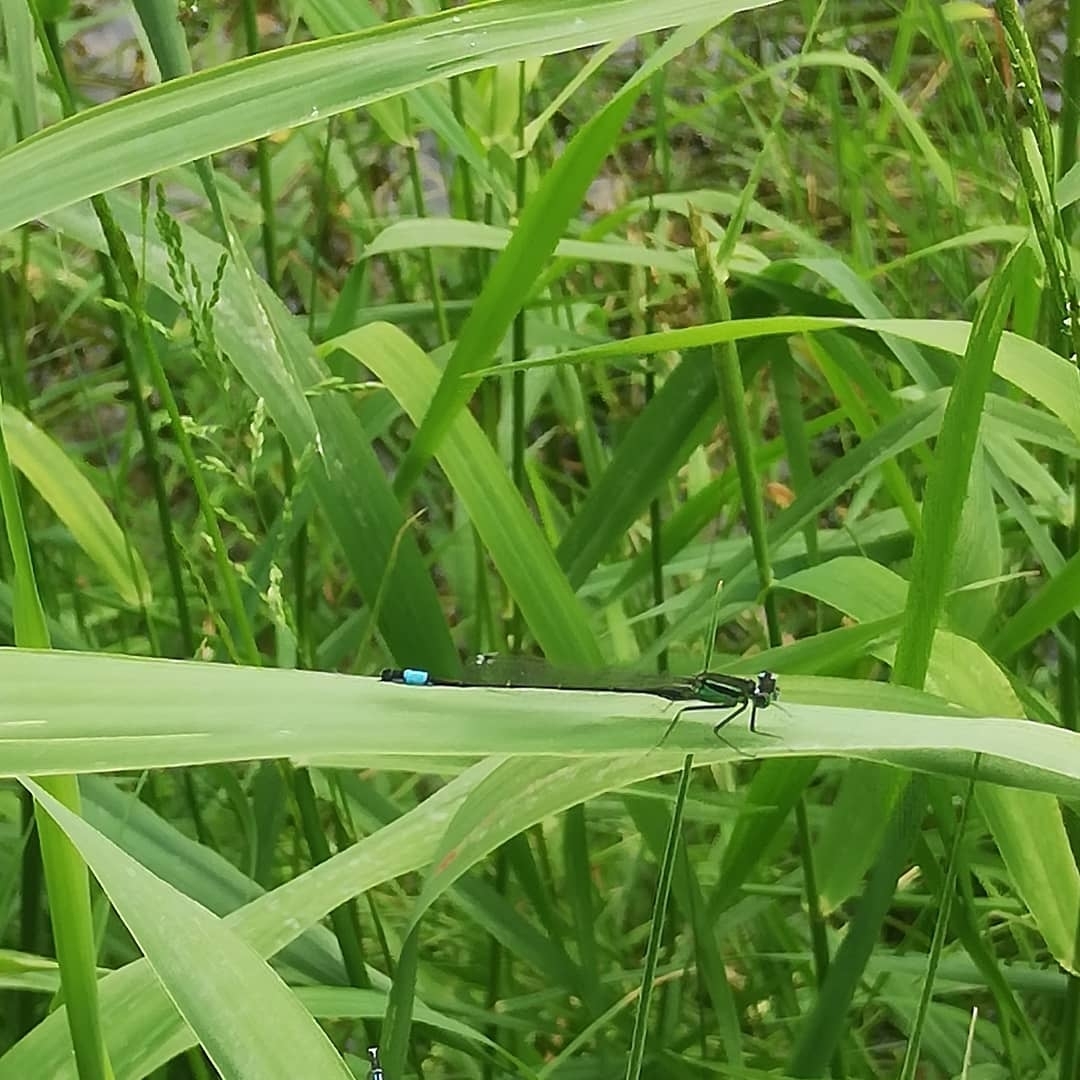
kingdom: Animalia
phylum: Arthropoda
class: Insecta
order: Odonata
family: Coenagrionidae
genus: Ischnura
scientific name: Ischnura elegans
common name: Blue-tailed damselfly
